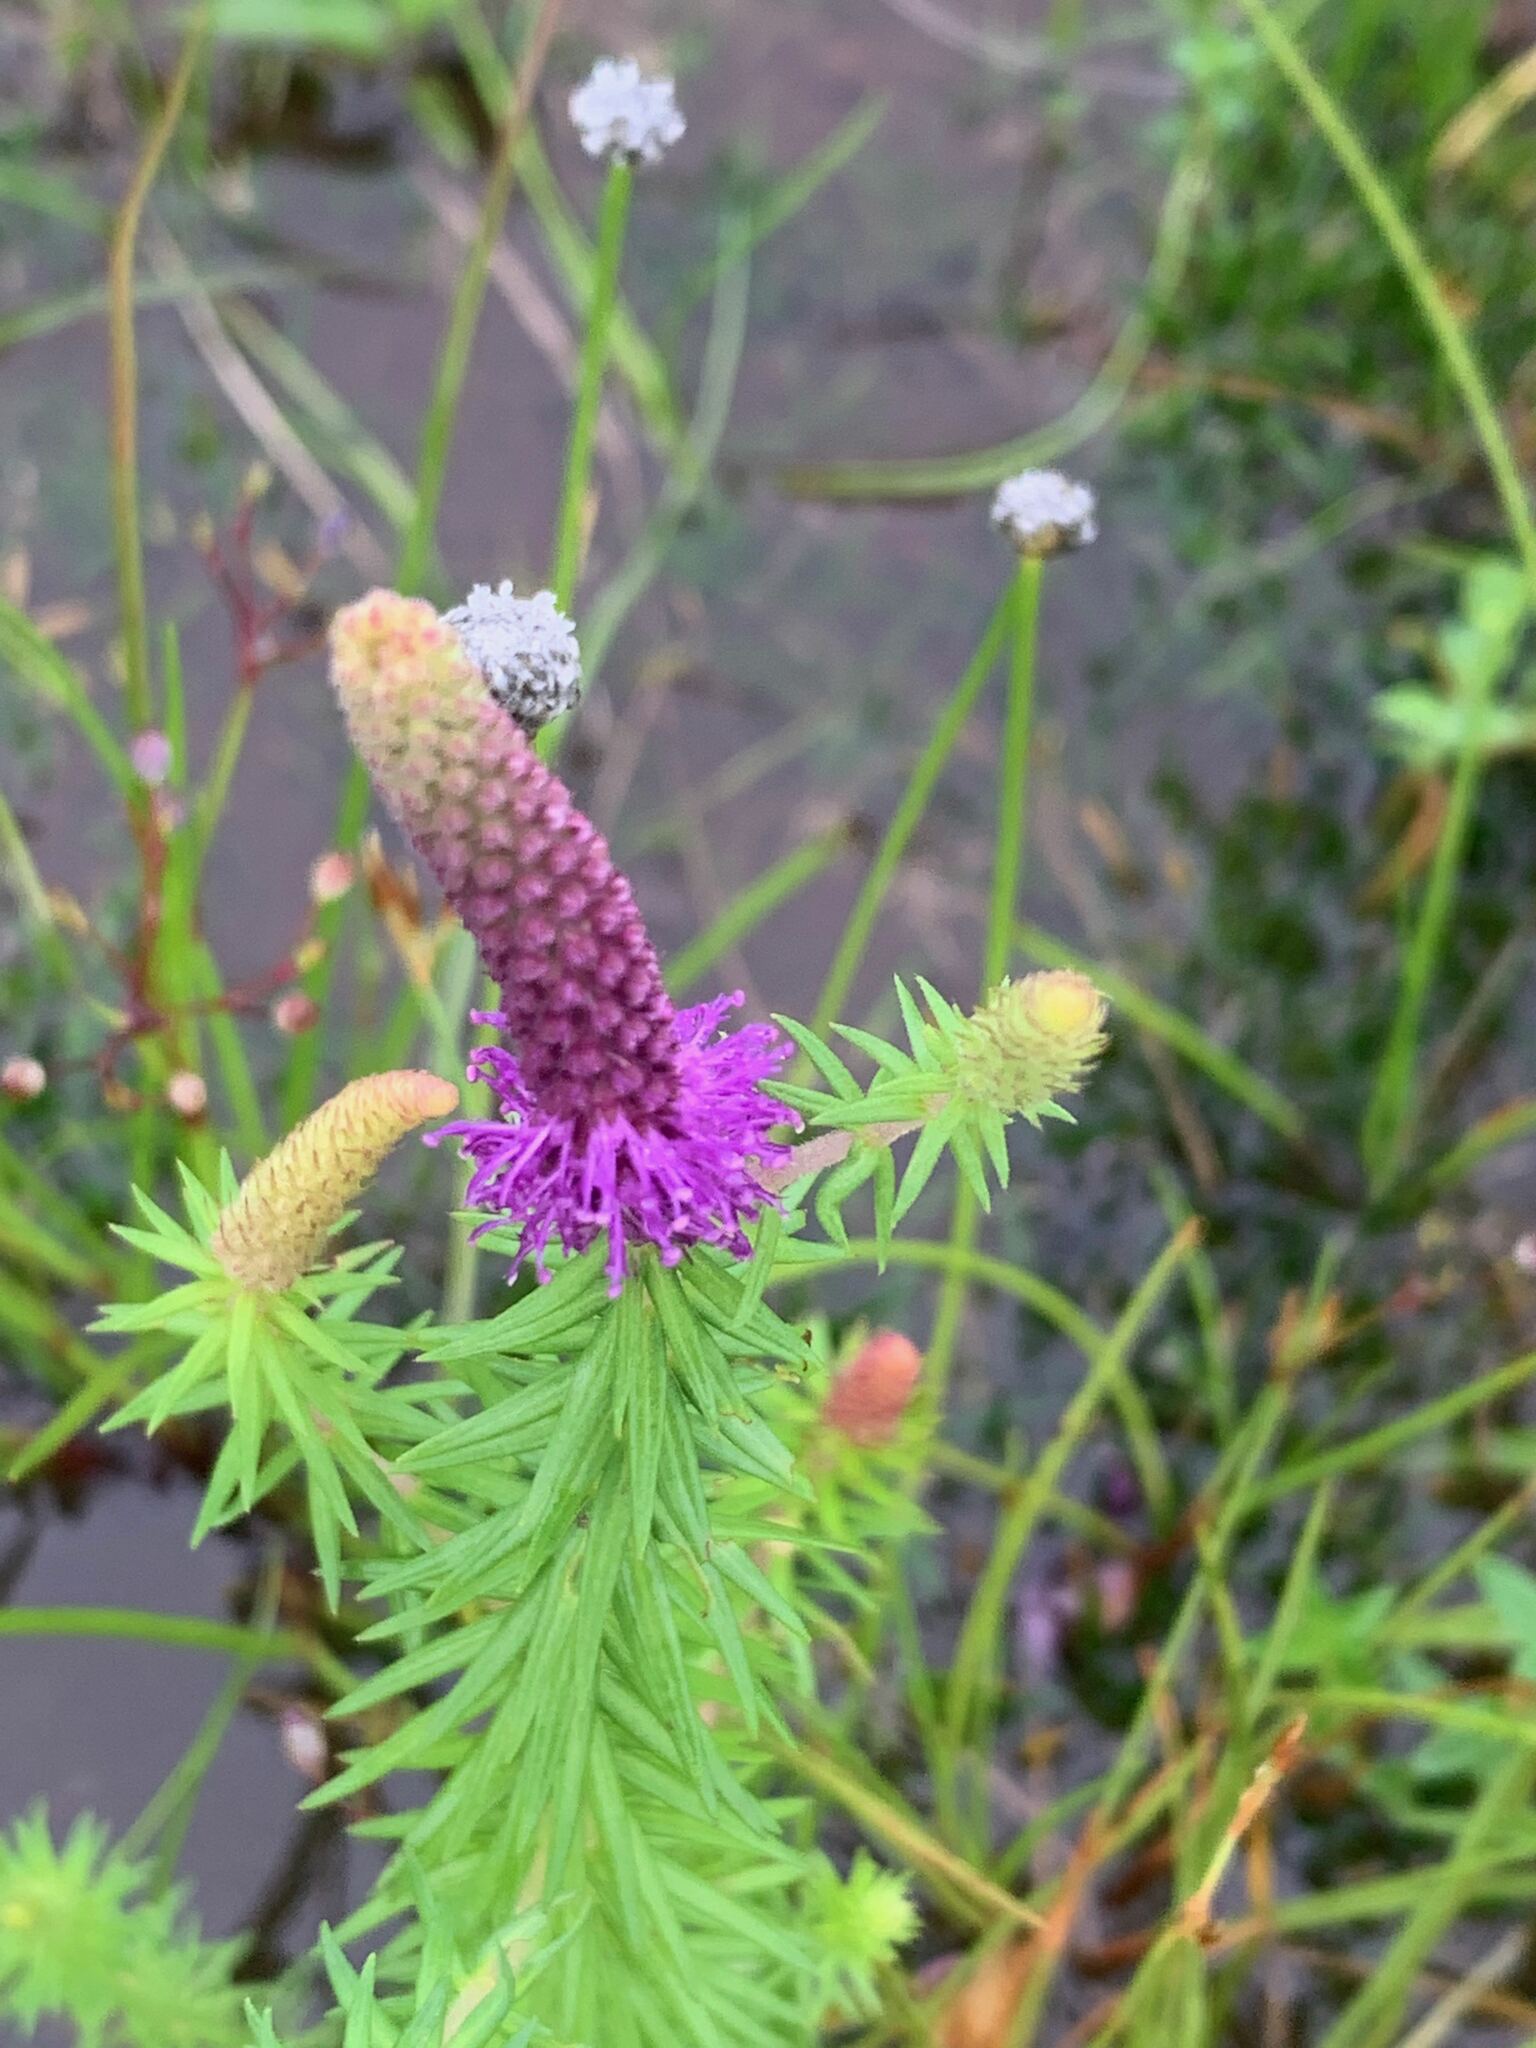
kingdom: Plantae
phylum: Tracheophyta
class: Magnoliopsida
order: Lamiales
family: Lamiaceae
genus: Pogostemon
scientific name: Pogostemon deccanensis
